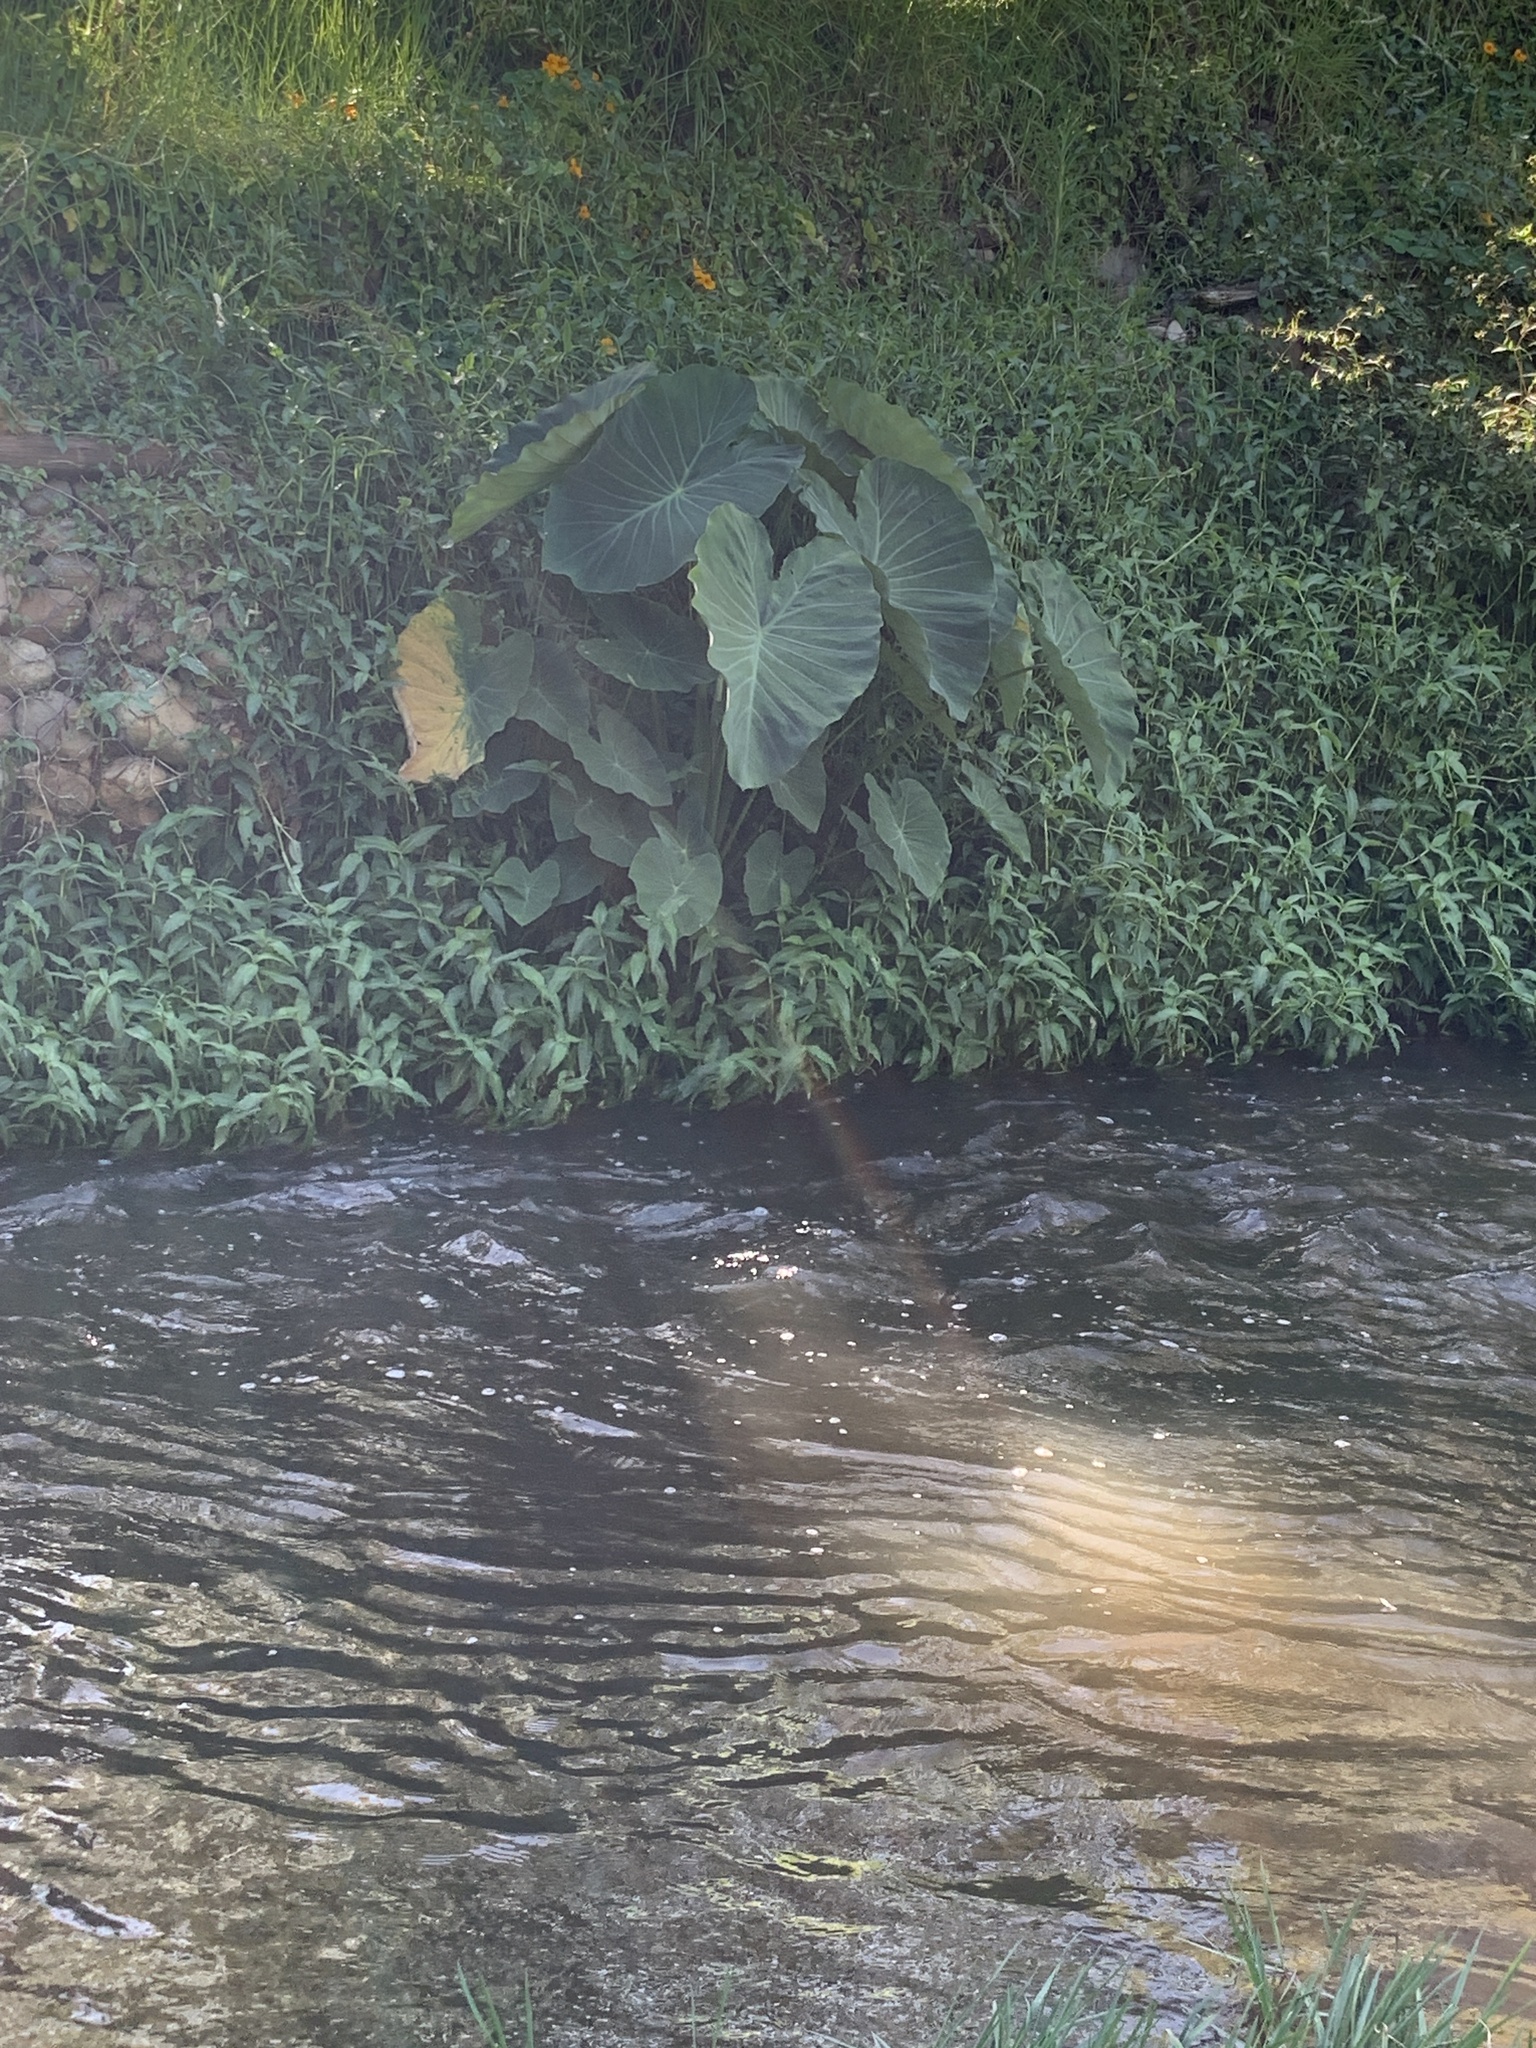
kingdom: Plantae
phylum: Tracheophyta
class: Liliopsida
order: Alismatales
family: Araceae
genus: Colocasia
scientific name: Colocasia esculenta
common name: Taro
